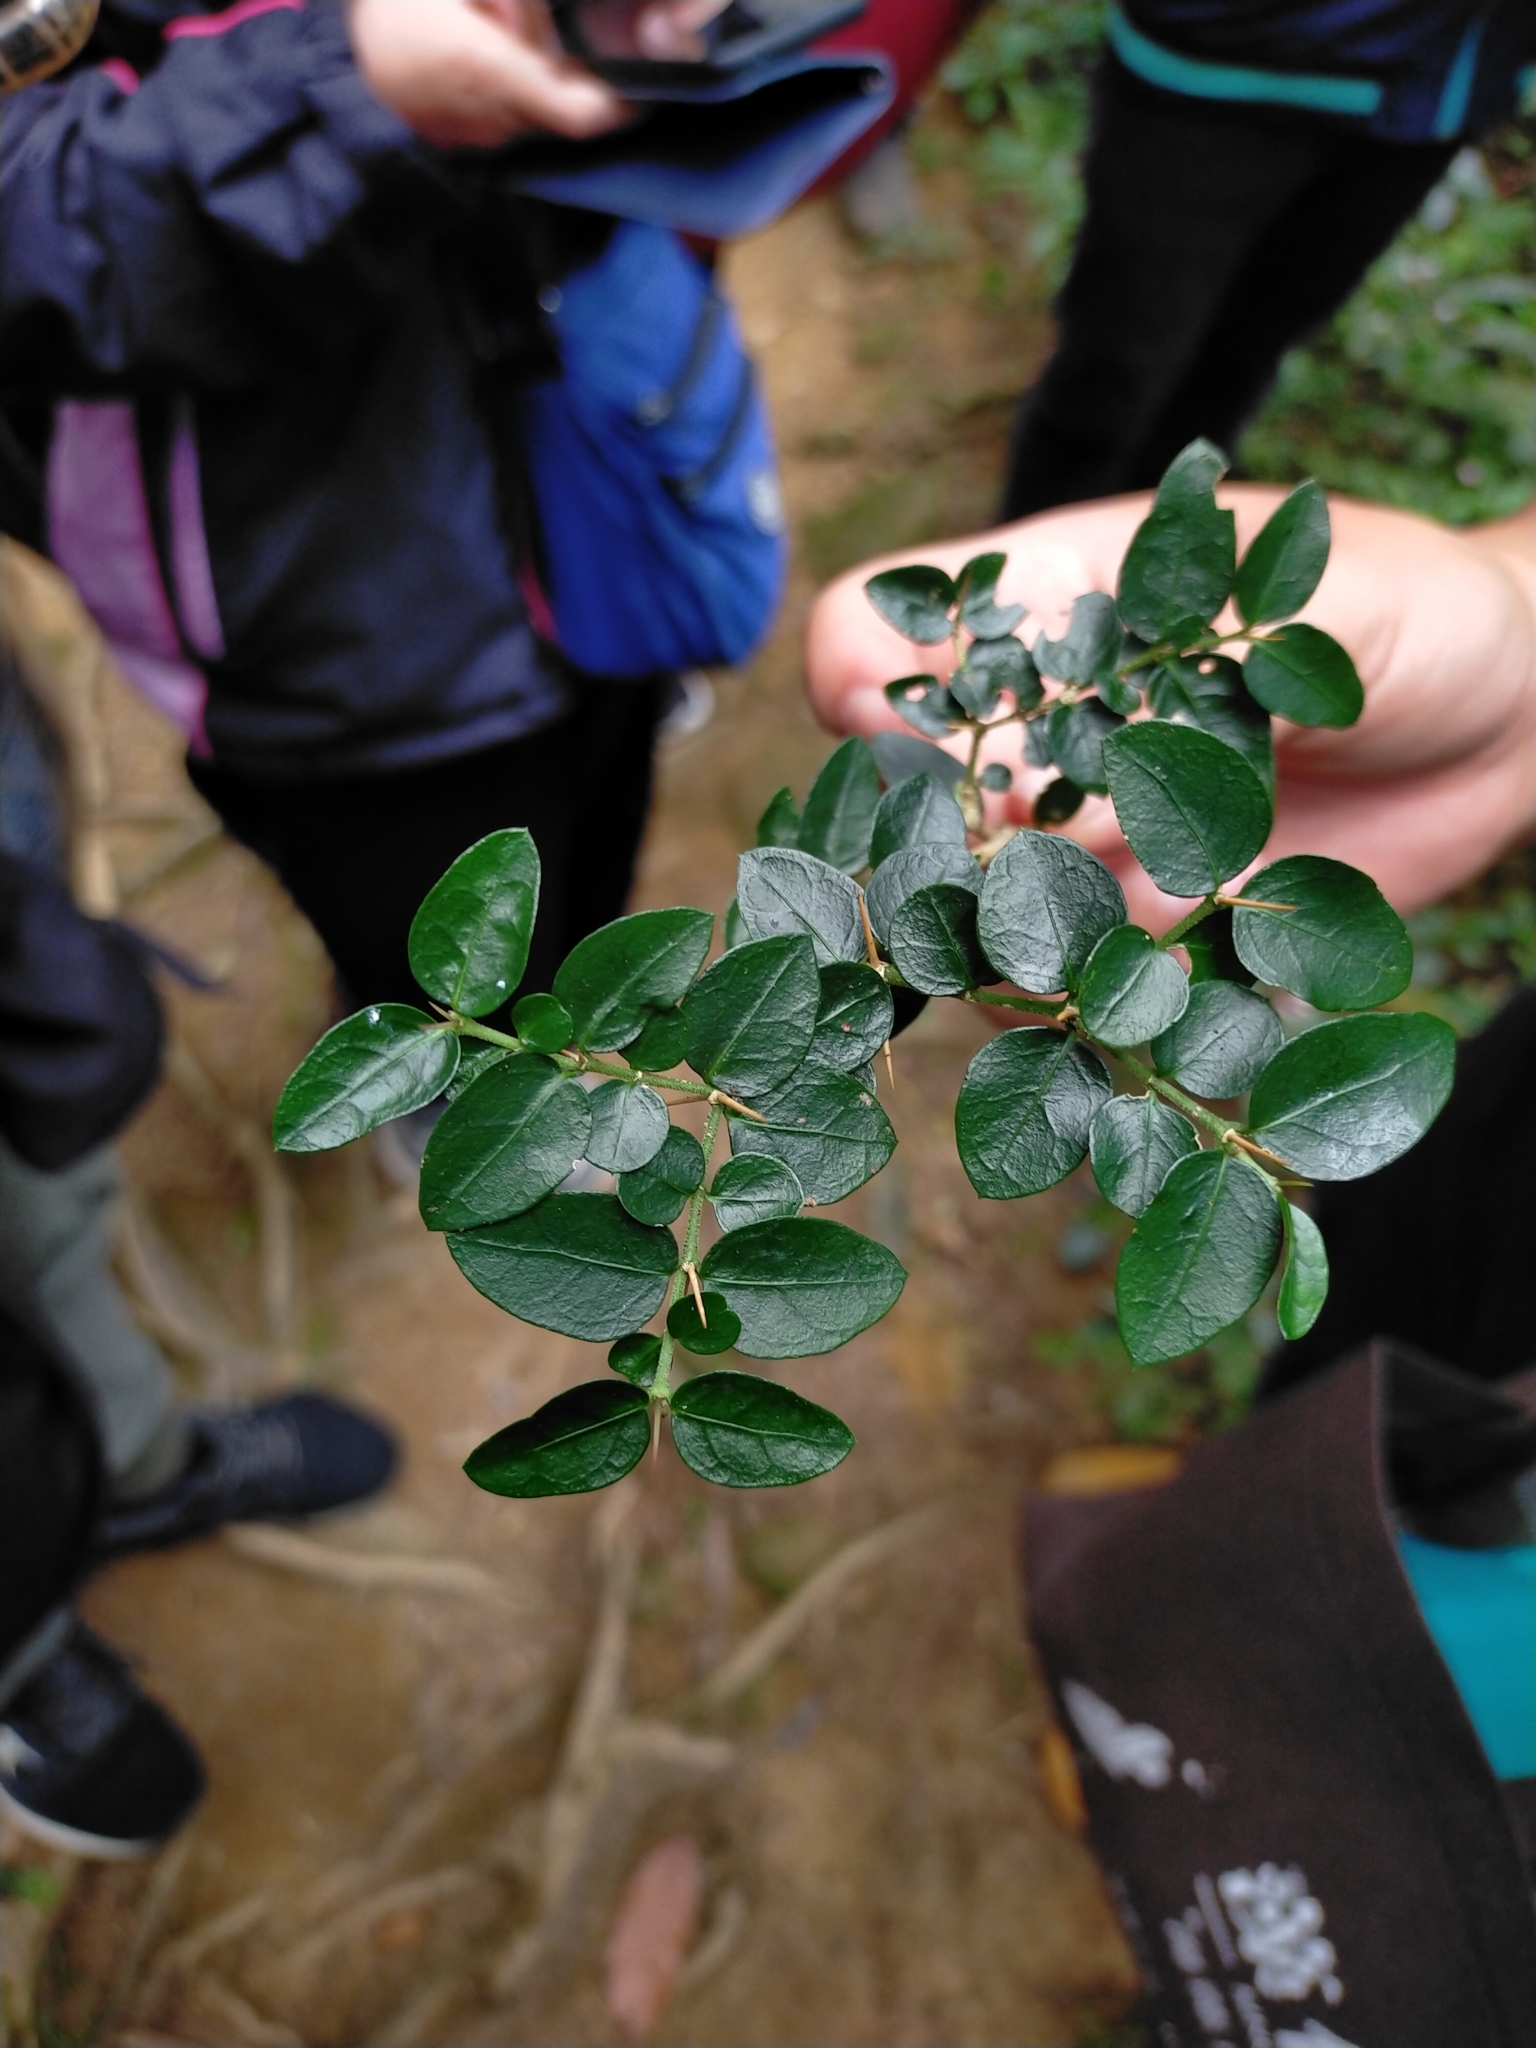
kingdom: Plantae
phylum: Tracheophyta
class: Magnoliopsida
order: Gentianales
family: Rubiaceae
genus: Damnacanthus
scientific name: Damnacanthus indicus
